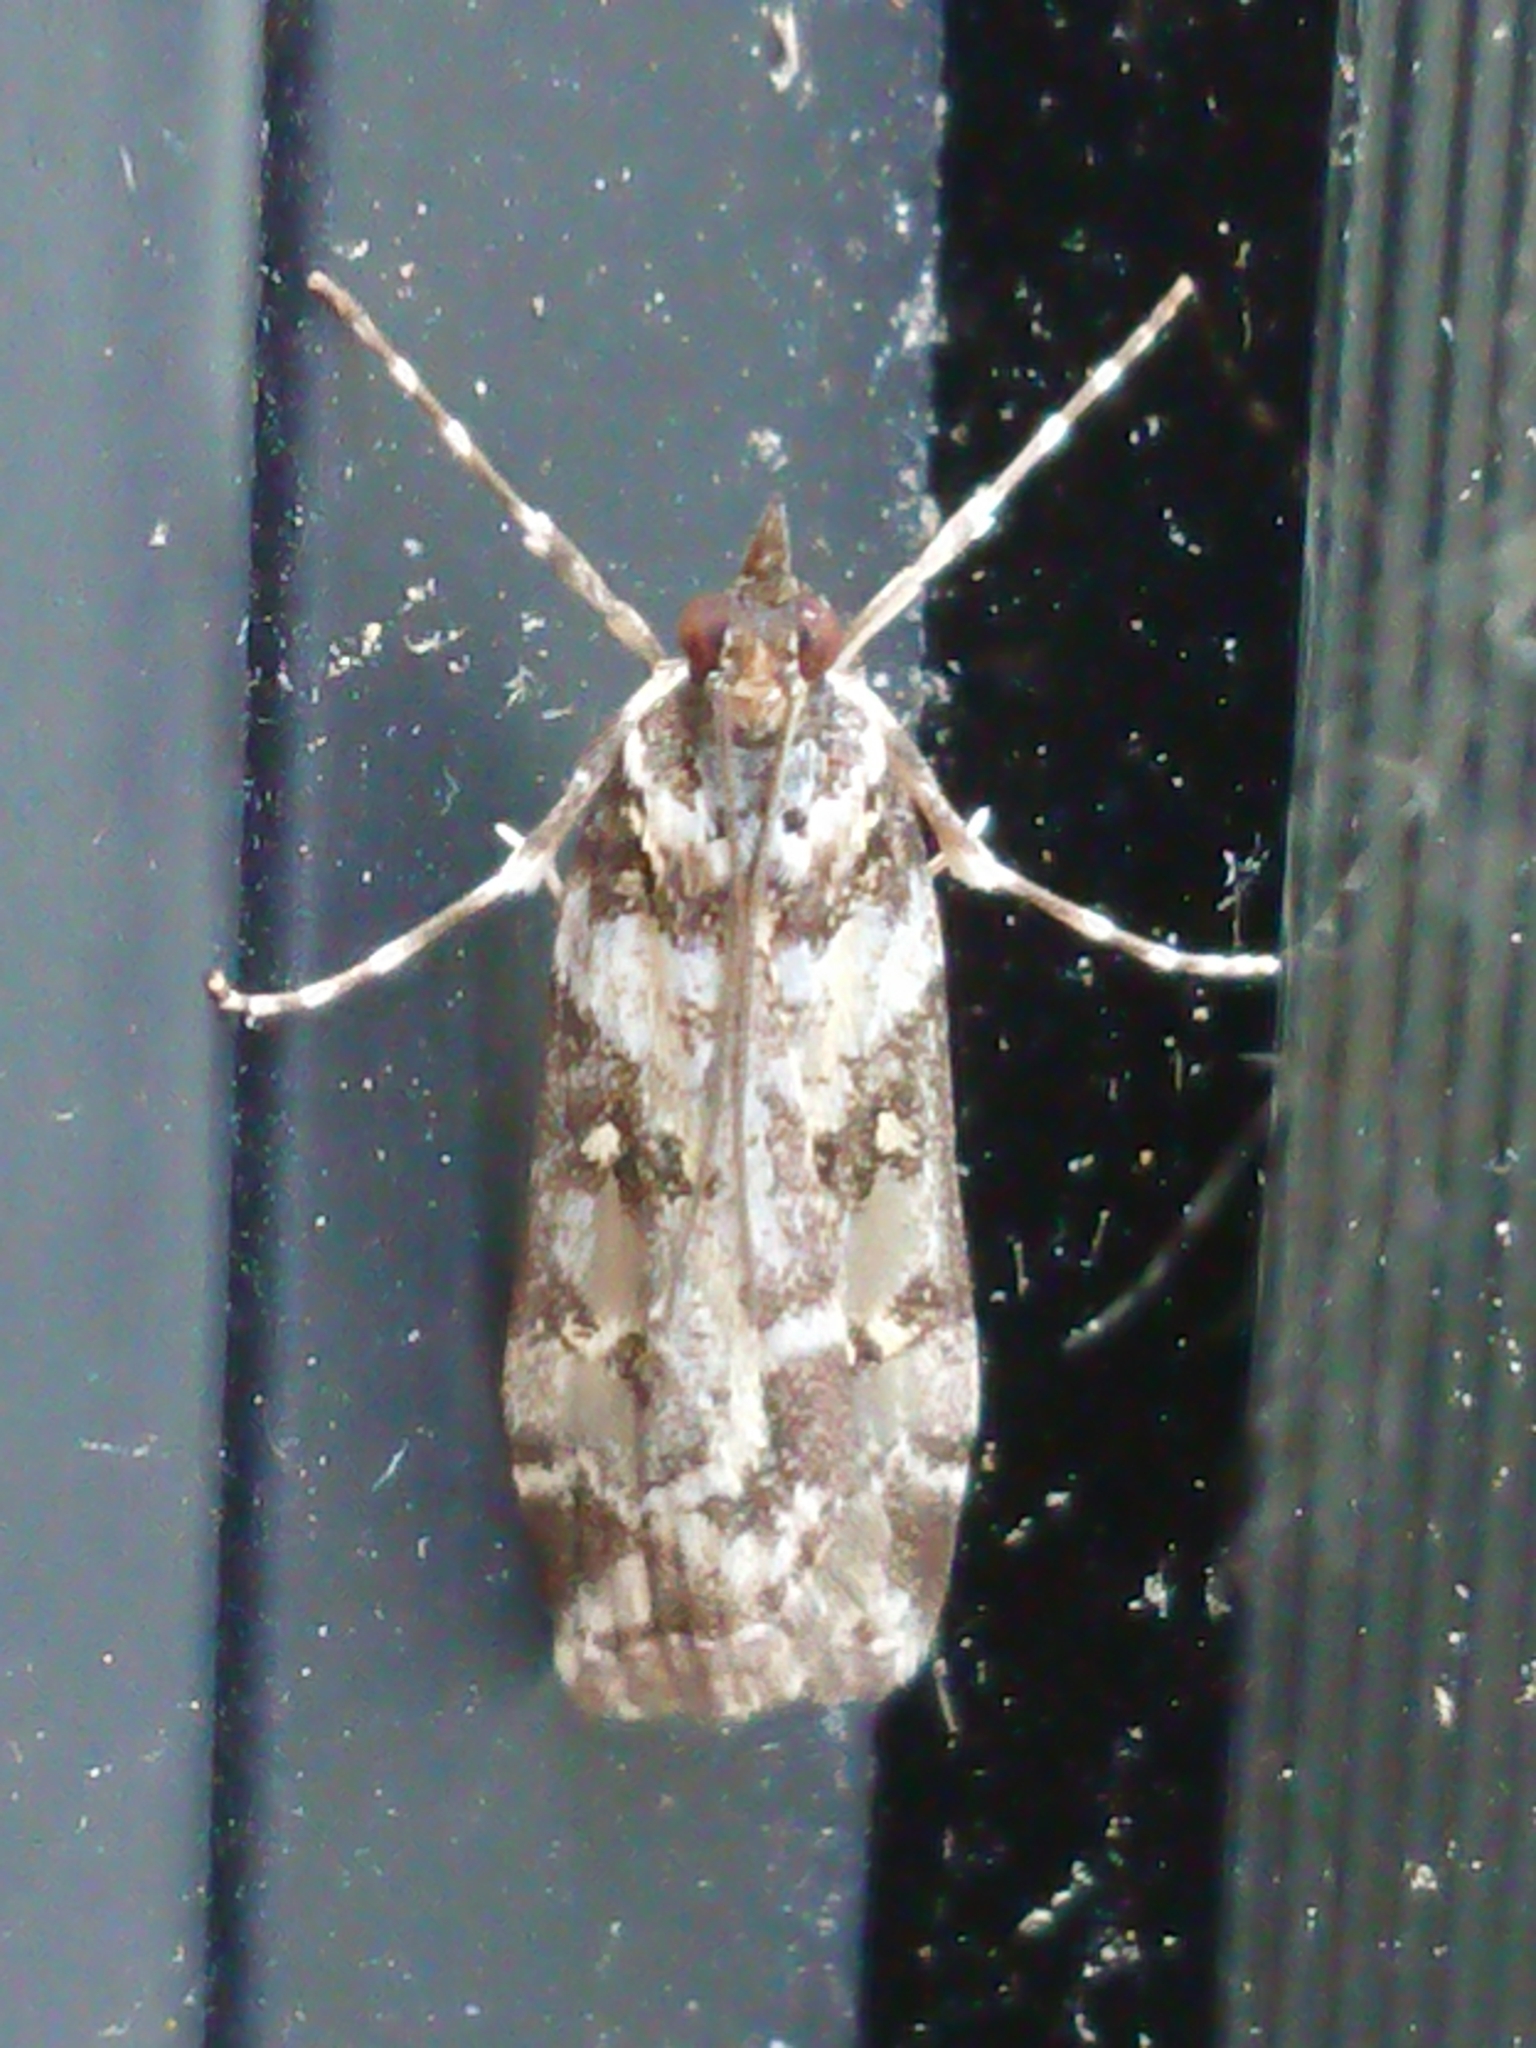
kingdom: Animalia
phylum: Arthropoda
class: Insecta
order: Lepidoptera
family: Crambidae
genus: Eudonia
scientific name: Eudonia diphtheralis
